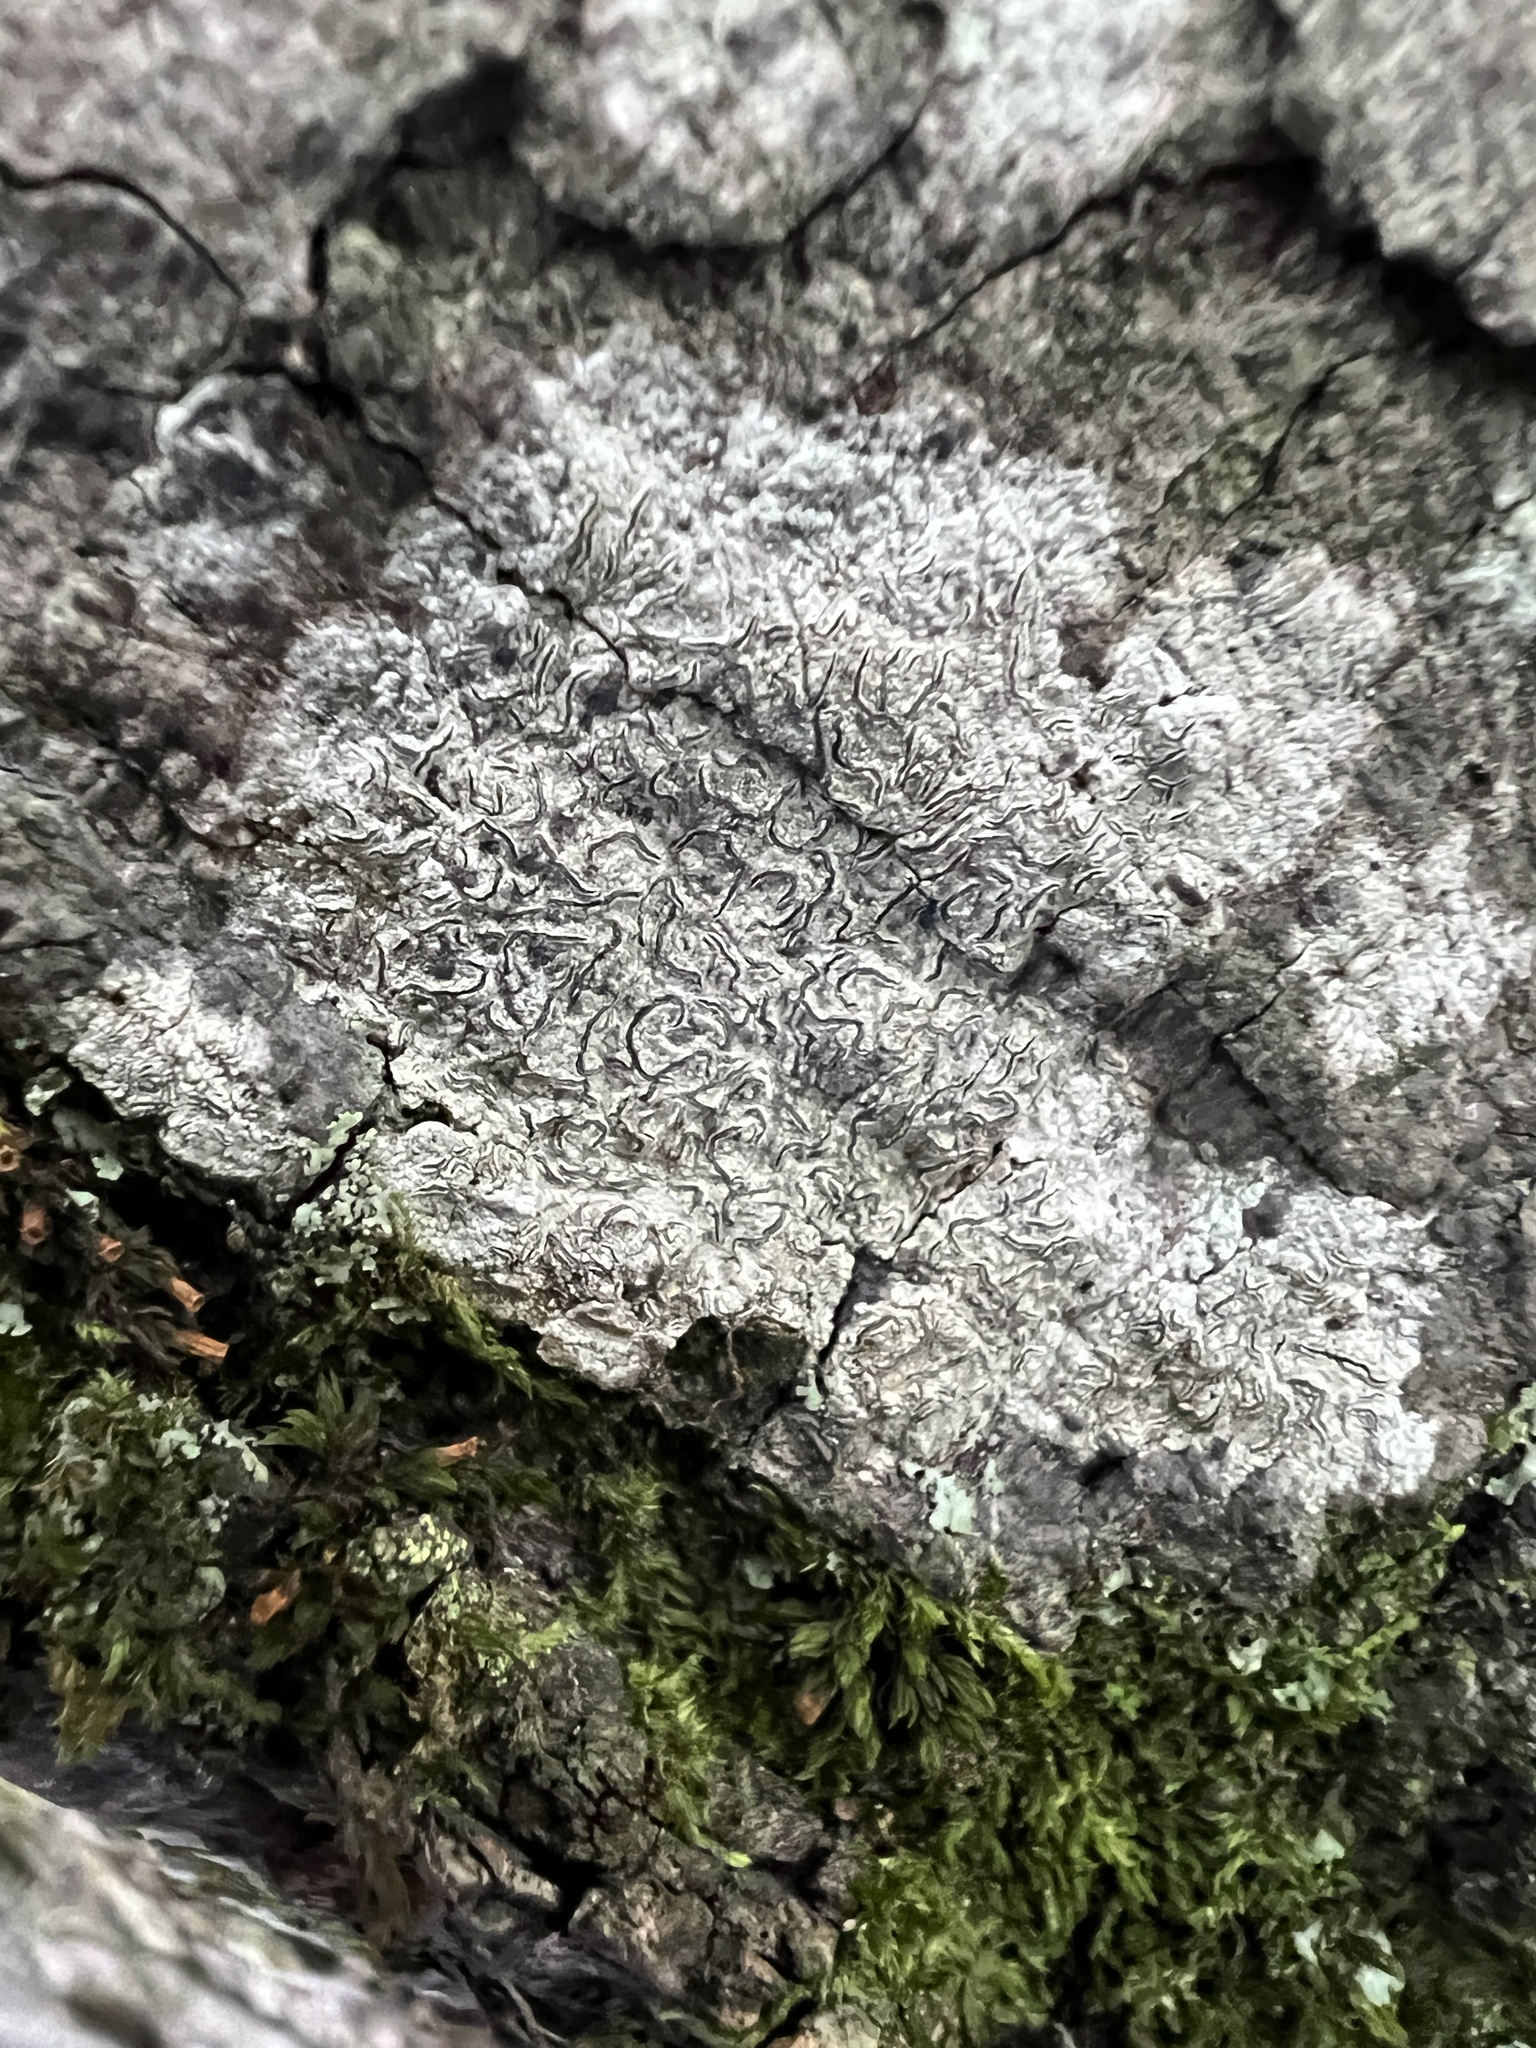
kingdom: Fungi
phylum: Ascomycota
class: Lecanoromycetes
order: Ostropales
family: Graphidaceae
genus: Graphis
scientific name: Graphis scripta
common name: Script lichen
